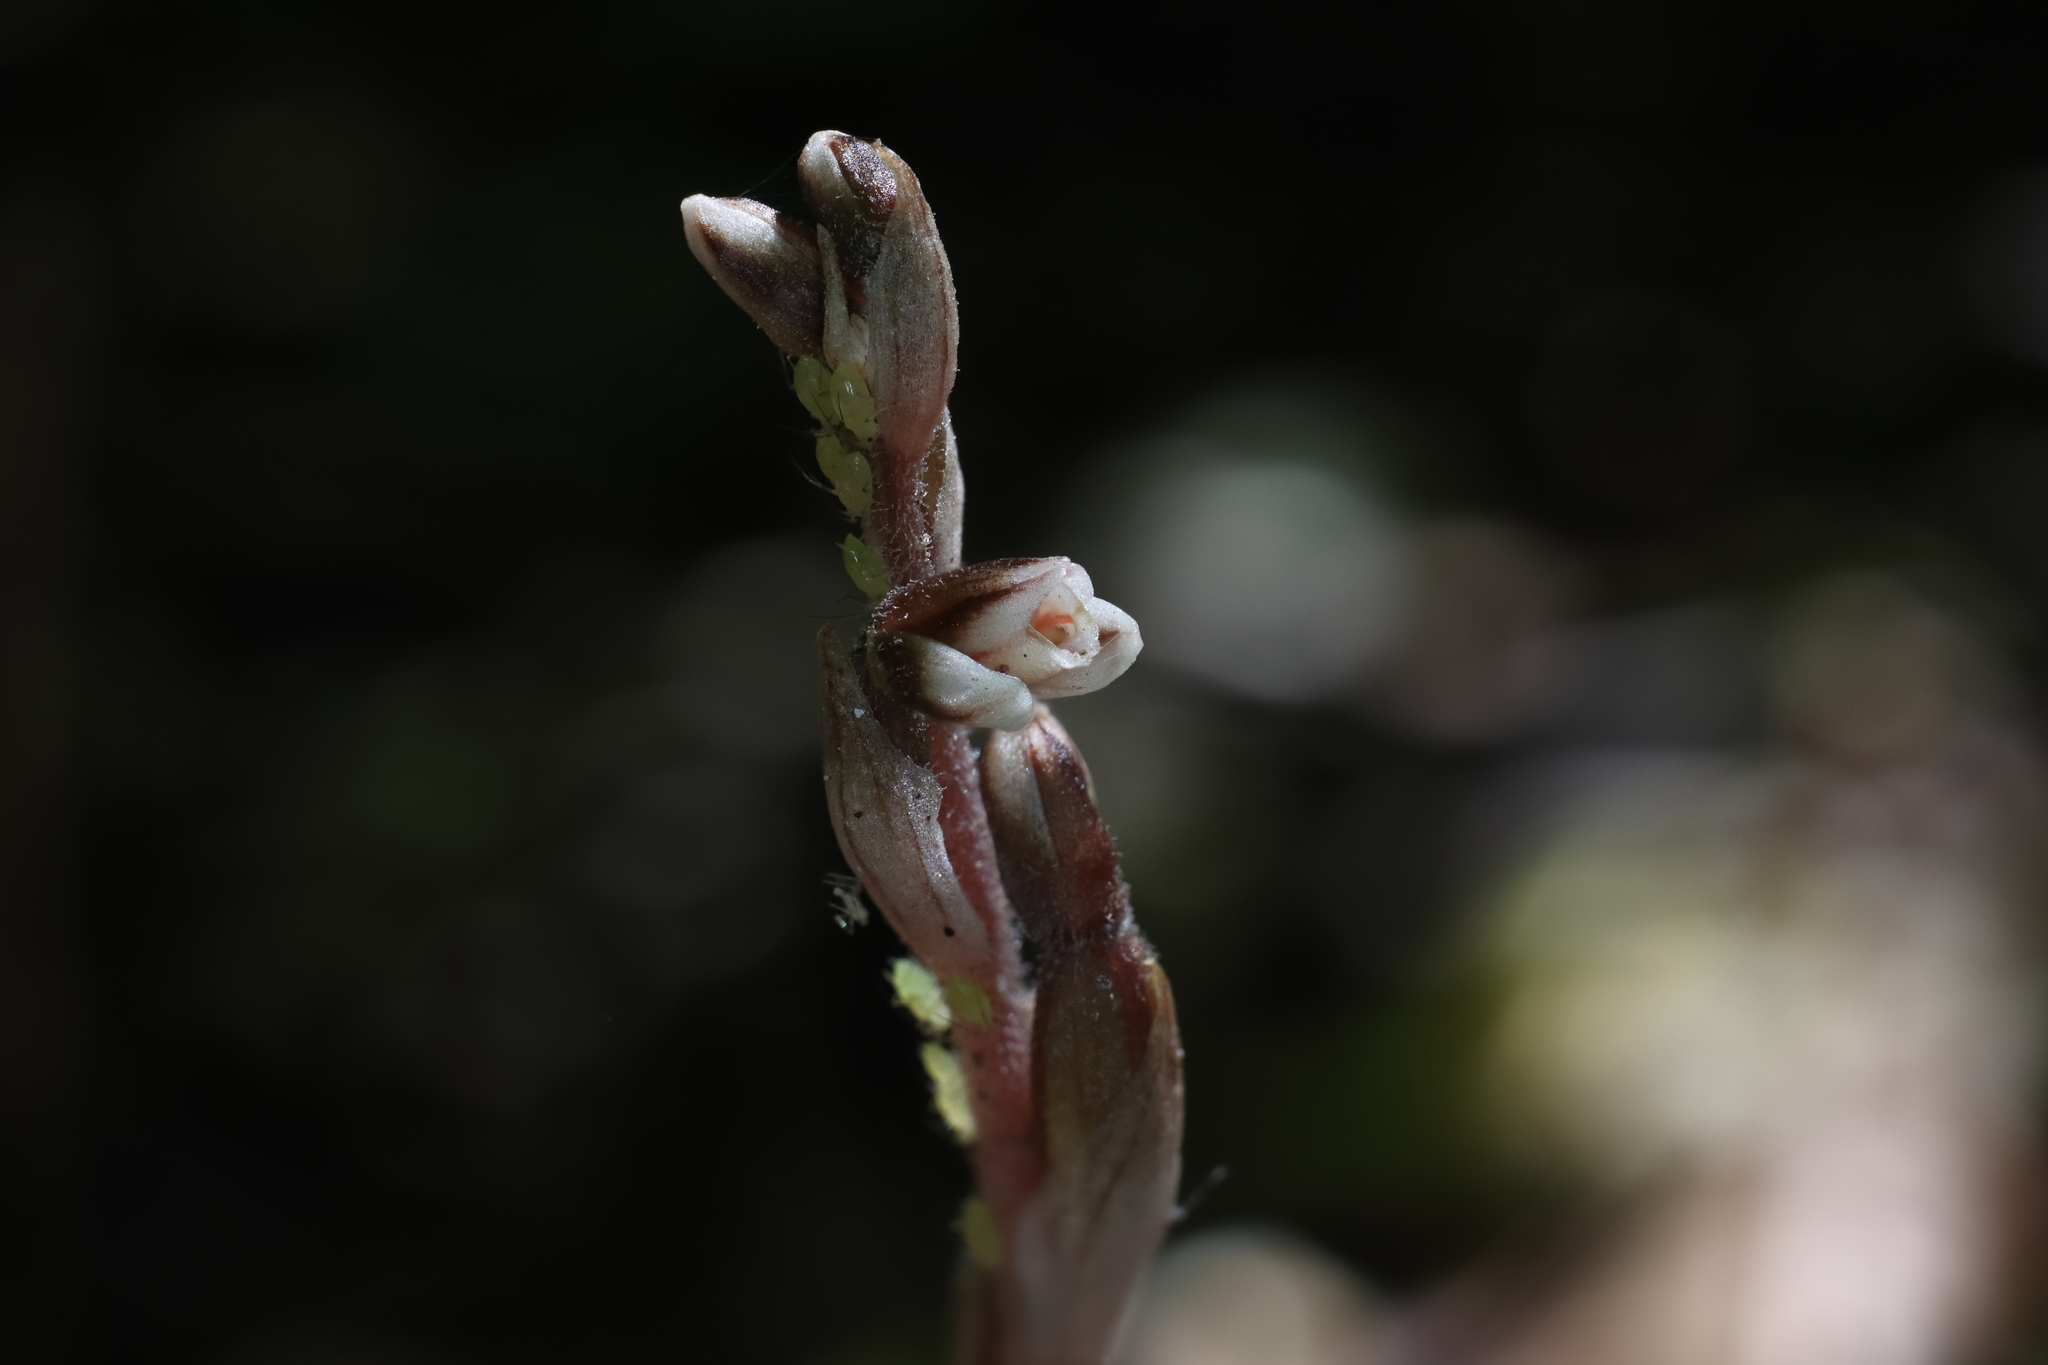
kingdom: Plantae
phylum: Tracheophyta
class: Liliopsida
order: Asparagales
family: Orchidaceae
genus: Danhatchia
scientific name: Danhatchia australis
